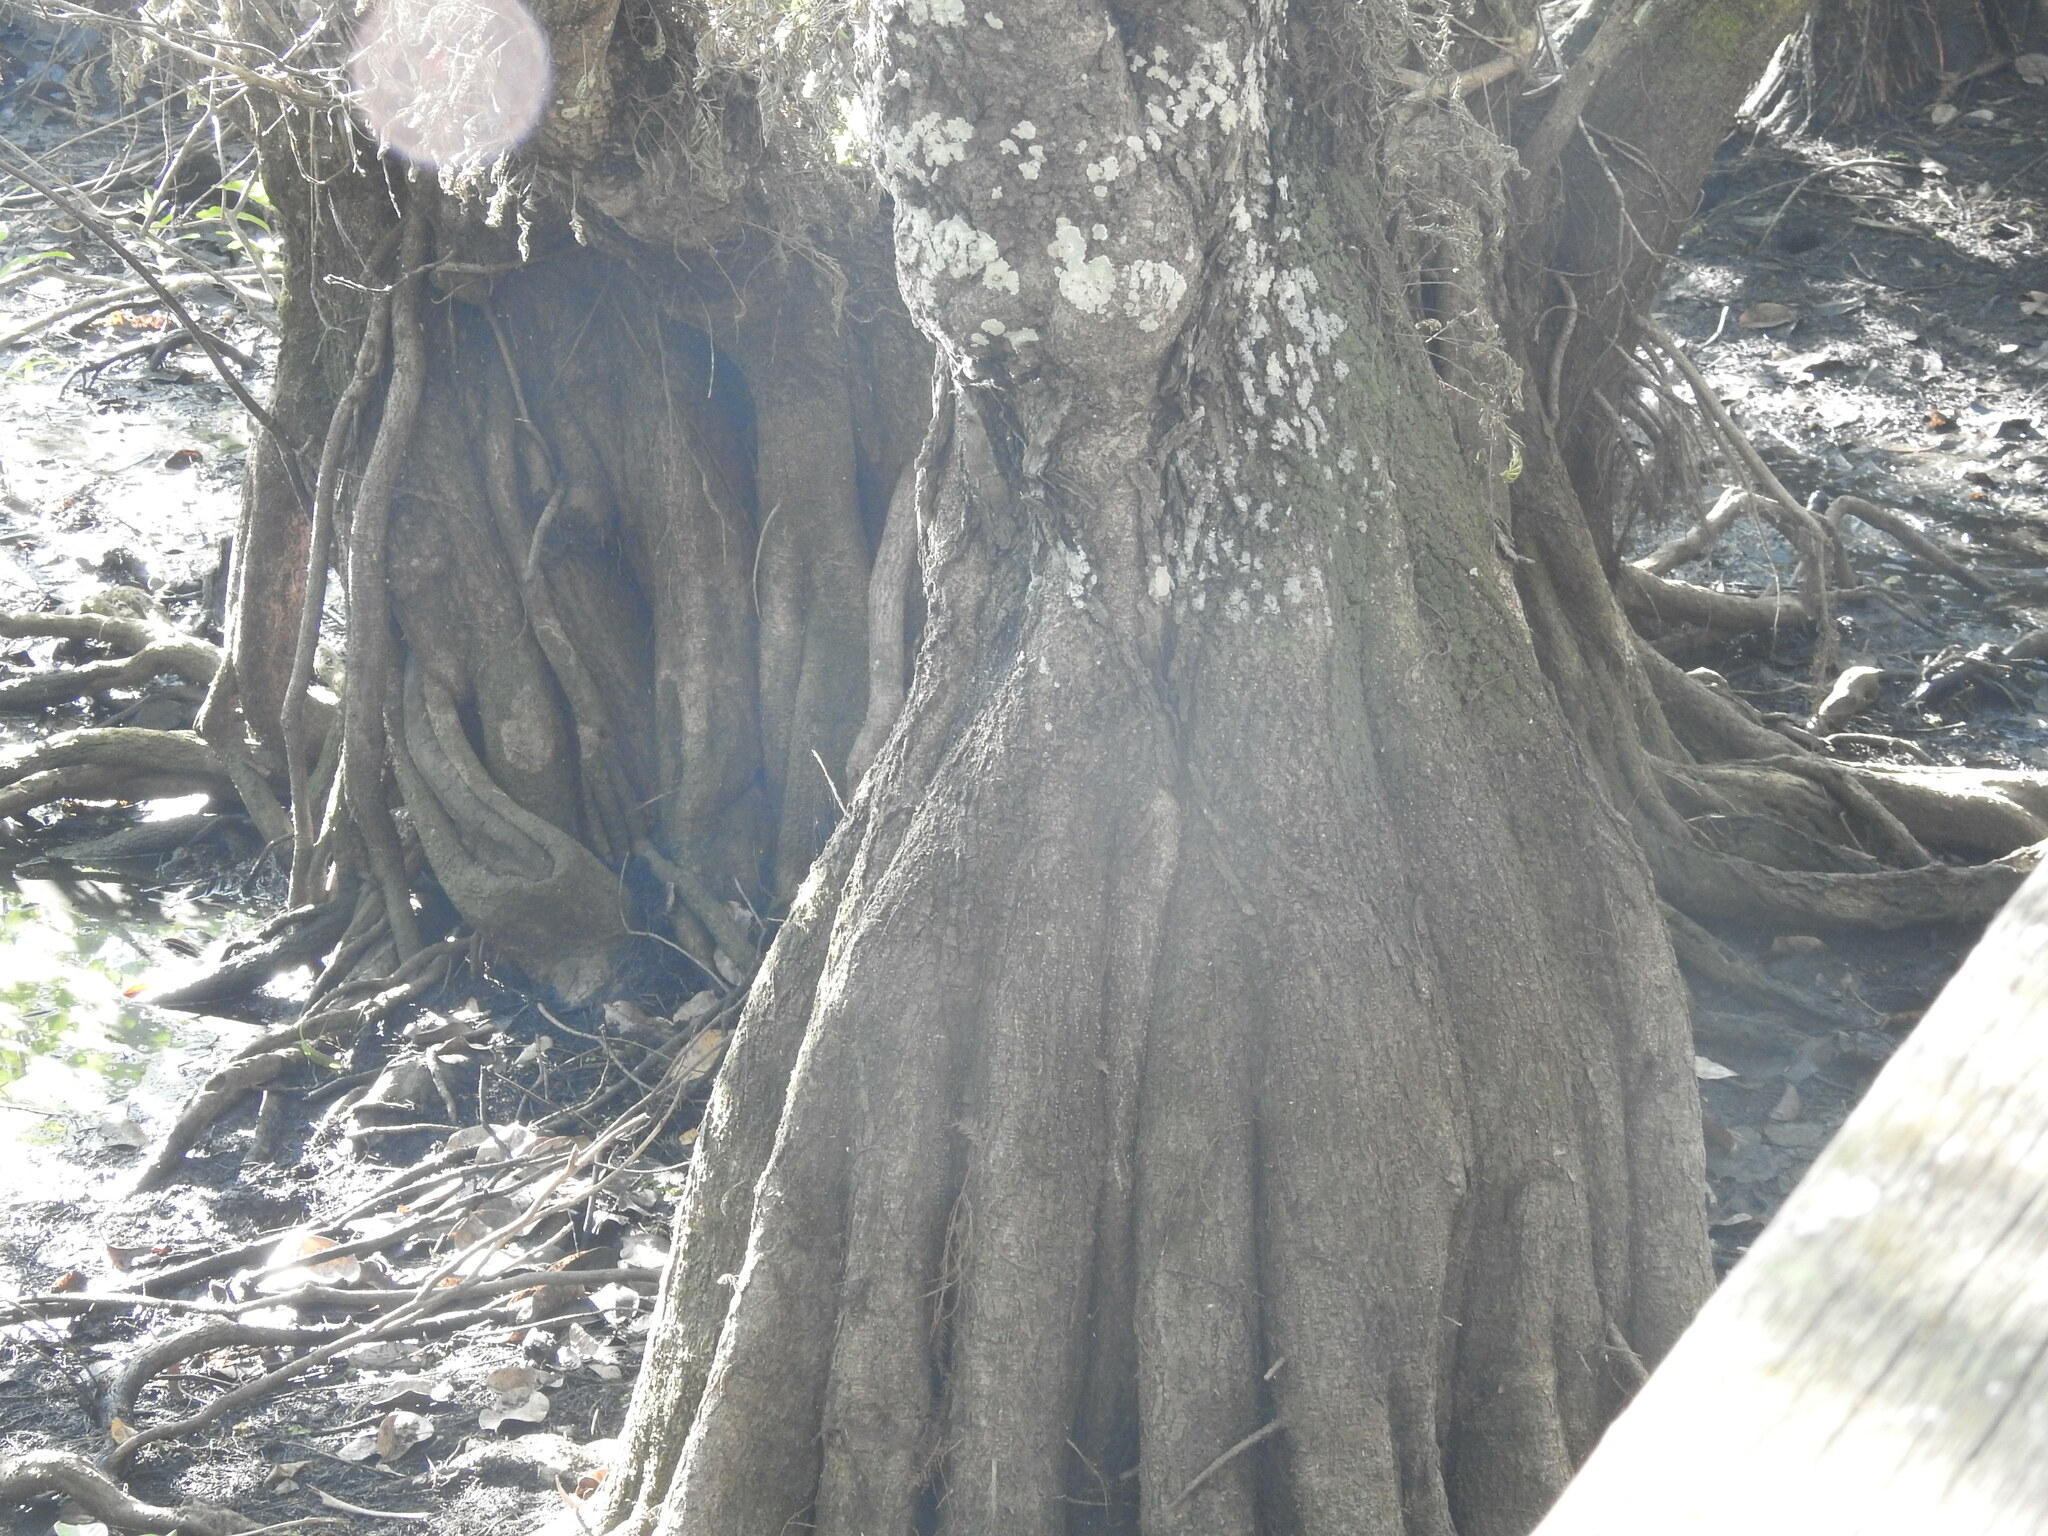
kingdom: Plantae
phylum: Tracheophyta
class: Magnoliopsida
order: Magnoliales
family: Annonaceae
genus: Annona
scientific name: Annona glabra
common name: Monkey apple
